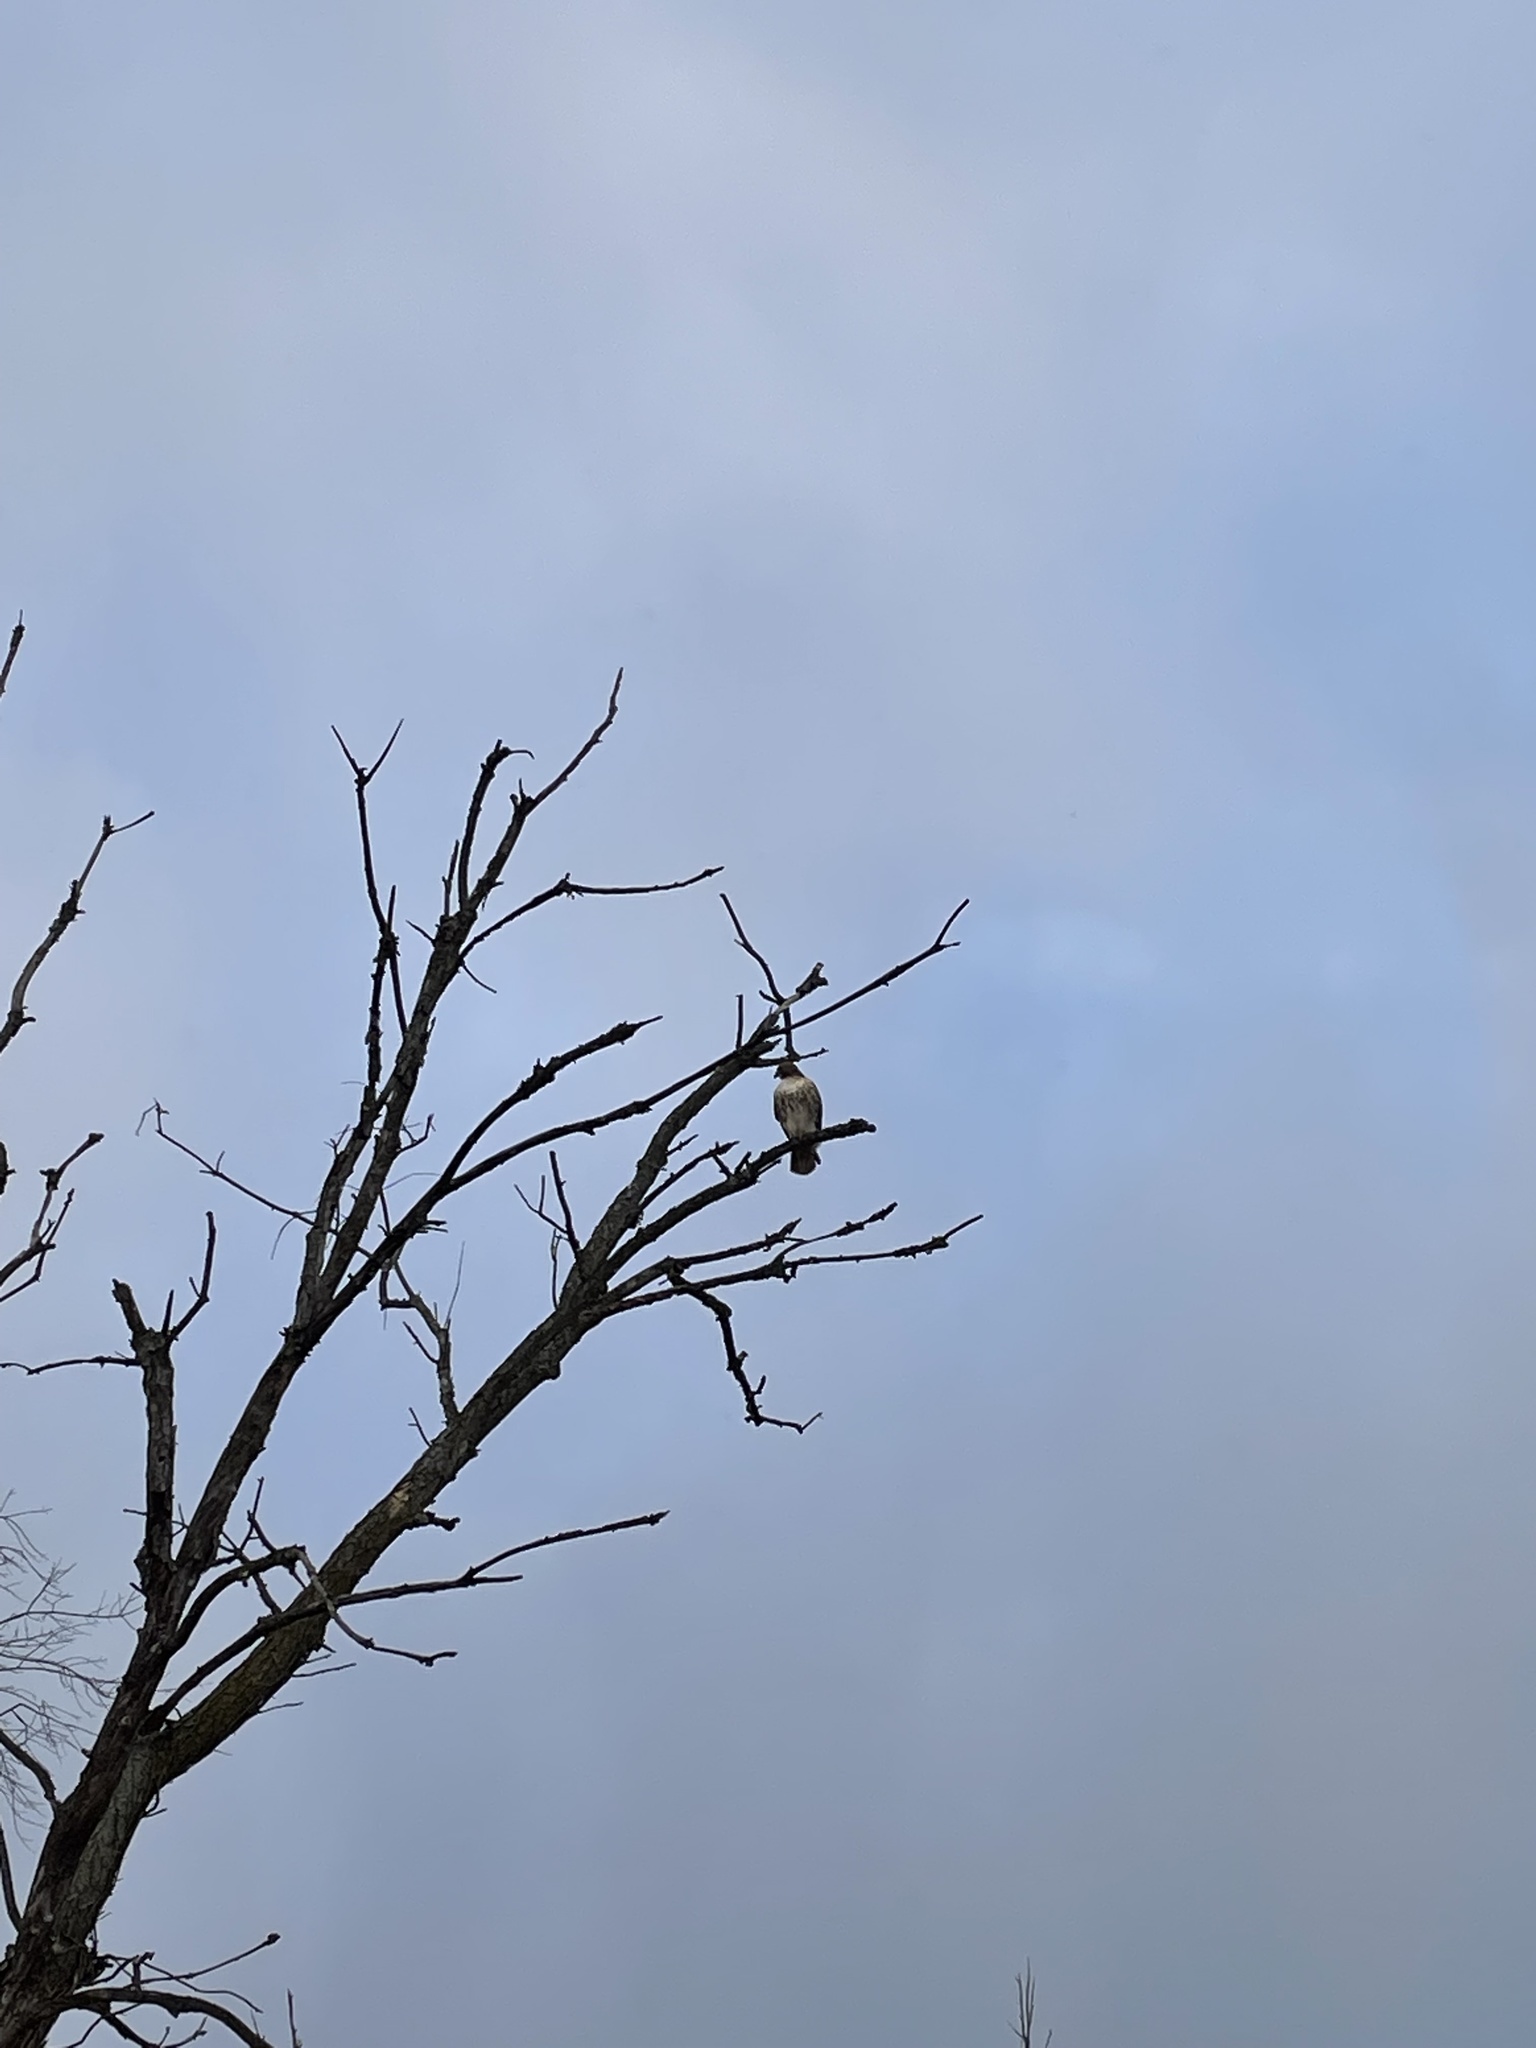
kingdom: Animalia
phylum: Chordata
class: Aves
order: Accipitriformes
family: Accipitridae
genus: Buteo
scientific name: Buteo jamaicensis
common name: Red-tailed hawk
